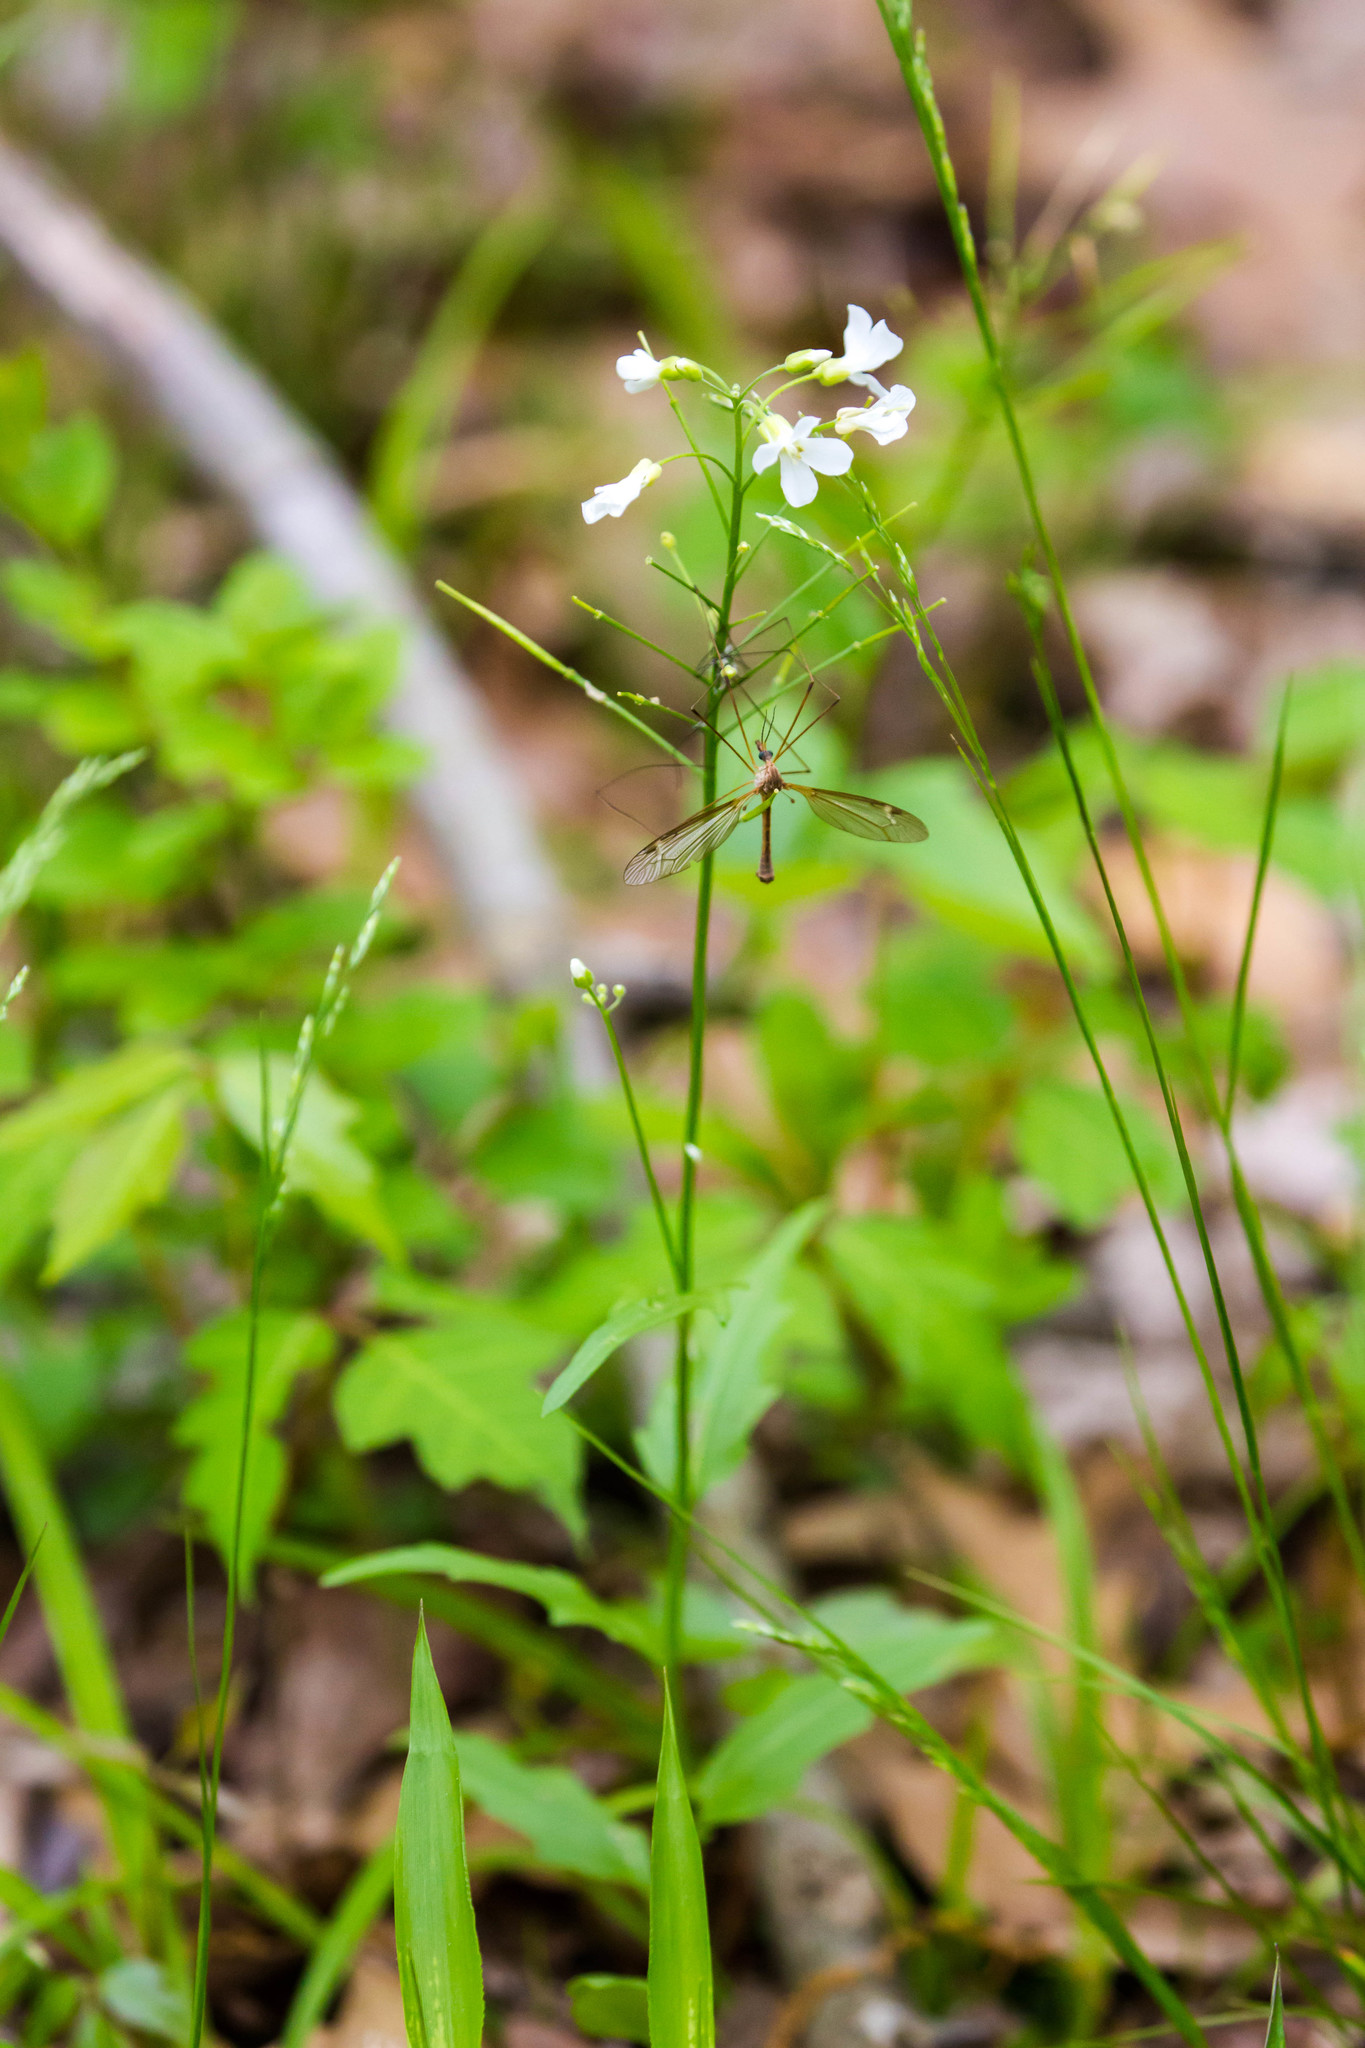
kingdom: Plantae
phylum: Tracheophyta
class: Magnoliopsida
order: Brassicales
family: Brassicaceae
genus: Cardamine
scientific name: Cardamine bulbosa
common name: Spring cress
